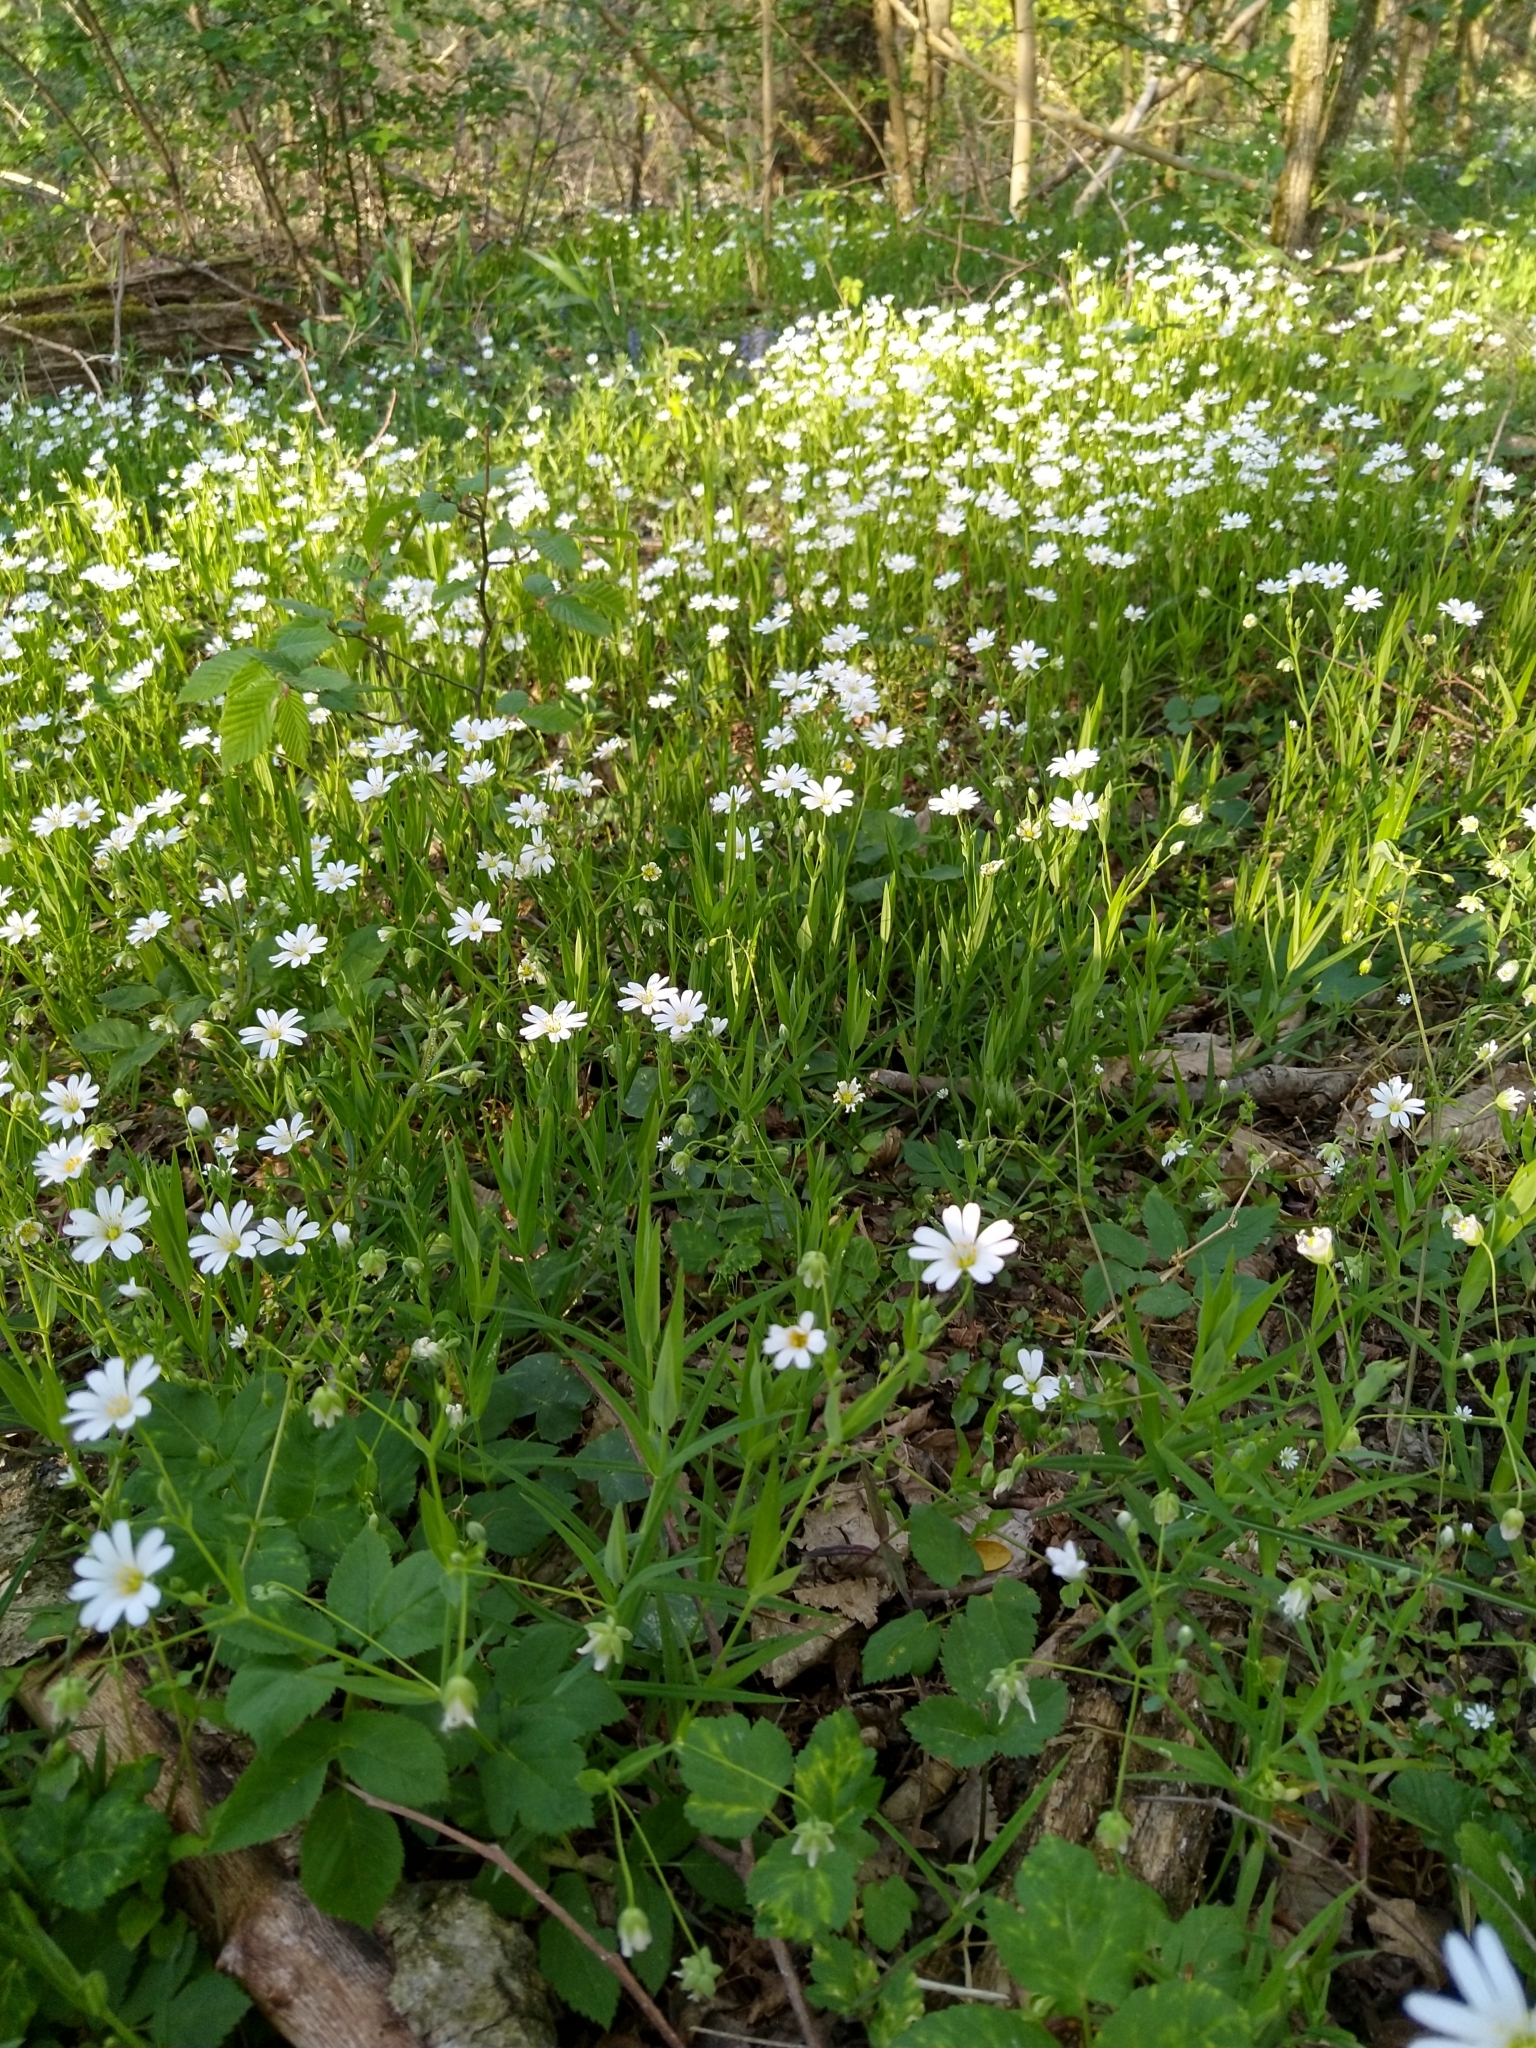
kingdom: Plantae
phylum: Tracheophyta
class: Magnoliopsida
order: Caryophyllales
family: Caryophyllaceae
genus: Rabelera
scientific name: Rabelera holostea
